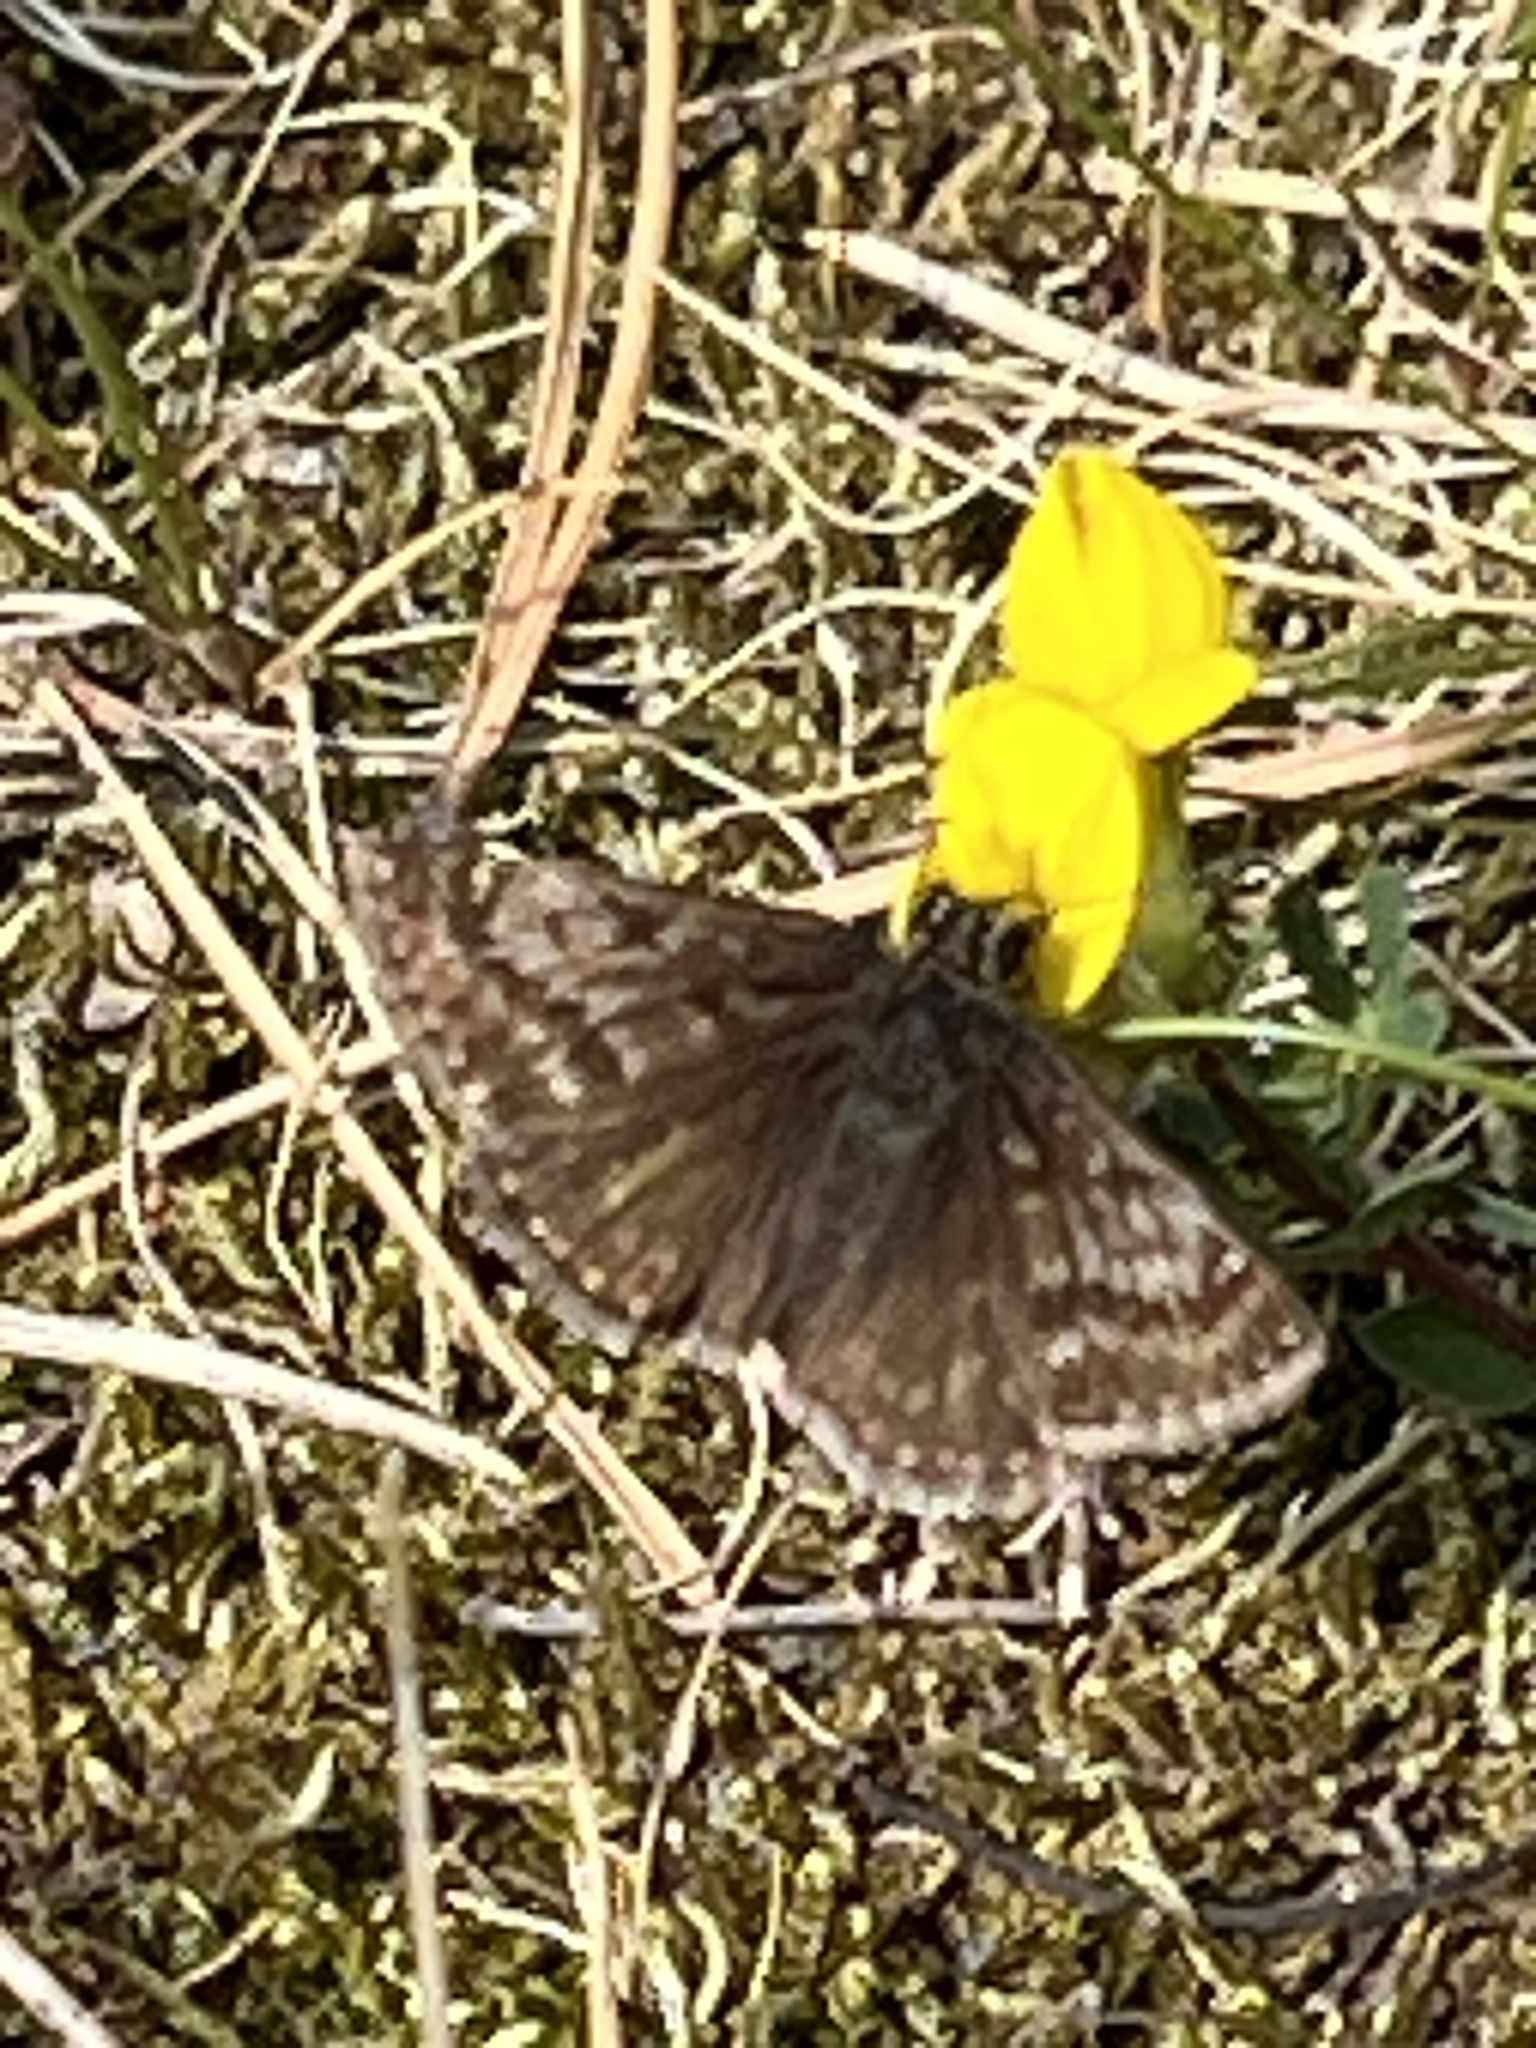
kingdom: Animalia
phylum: Arthropoda
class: Insecta
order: Lepidoptera
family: Hesperiidae
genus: Erynnis
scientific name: Erynnis tages
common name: Dingy skipper
